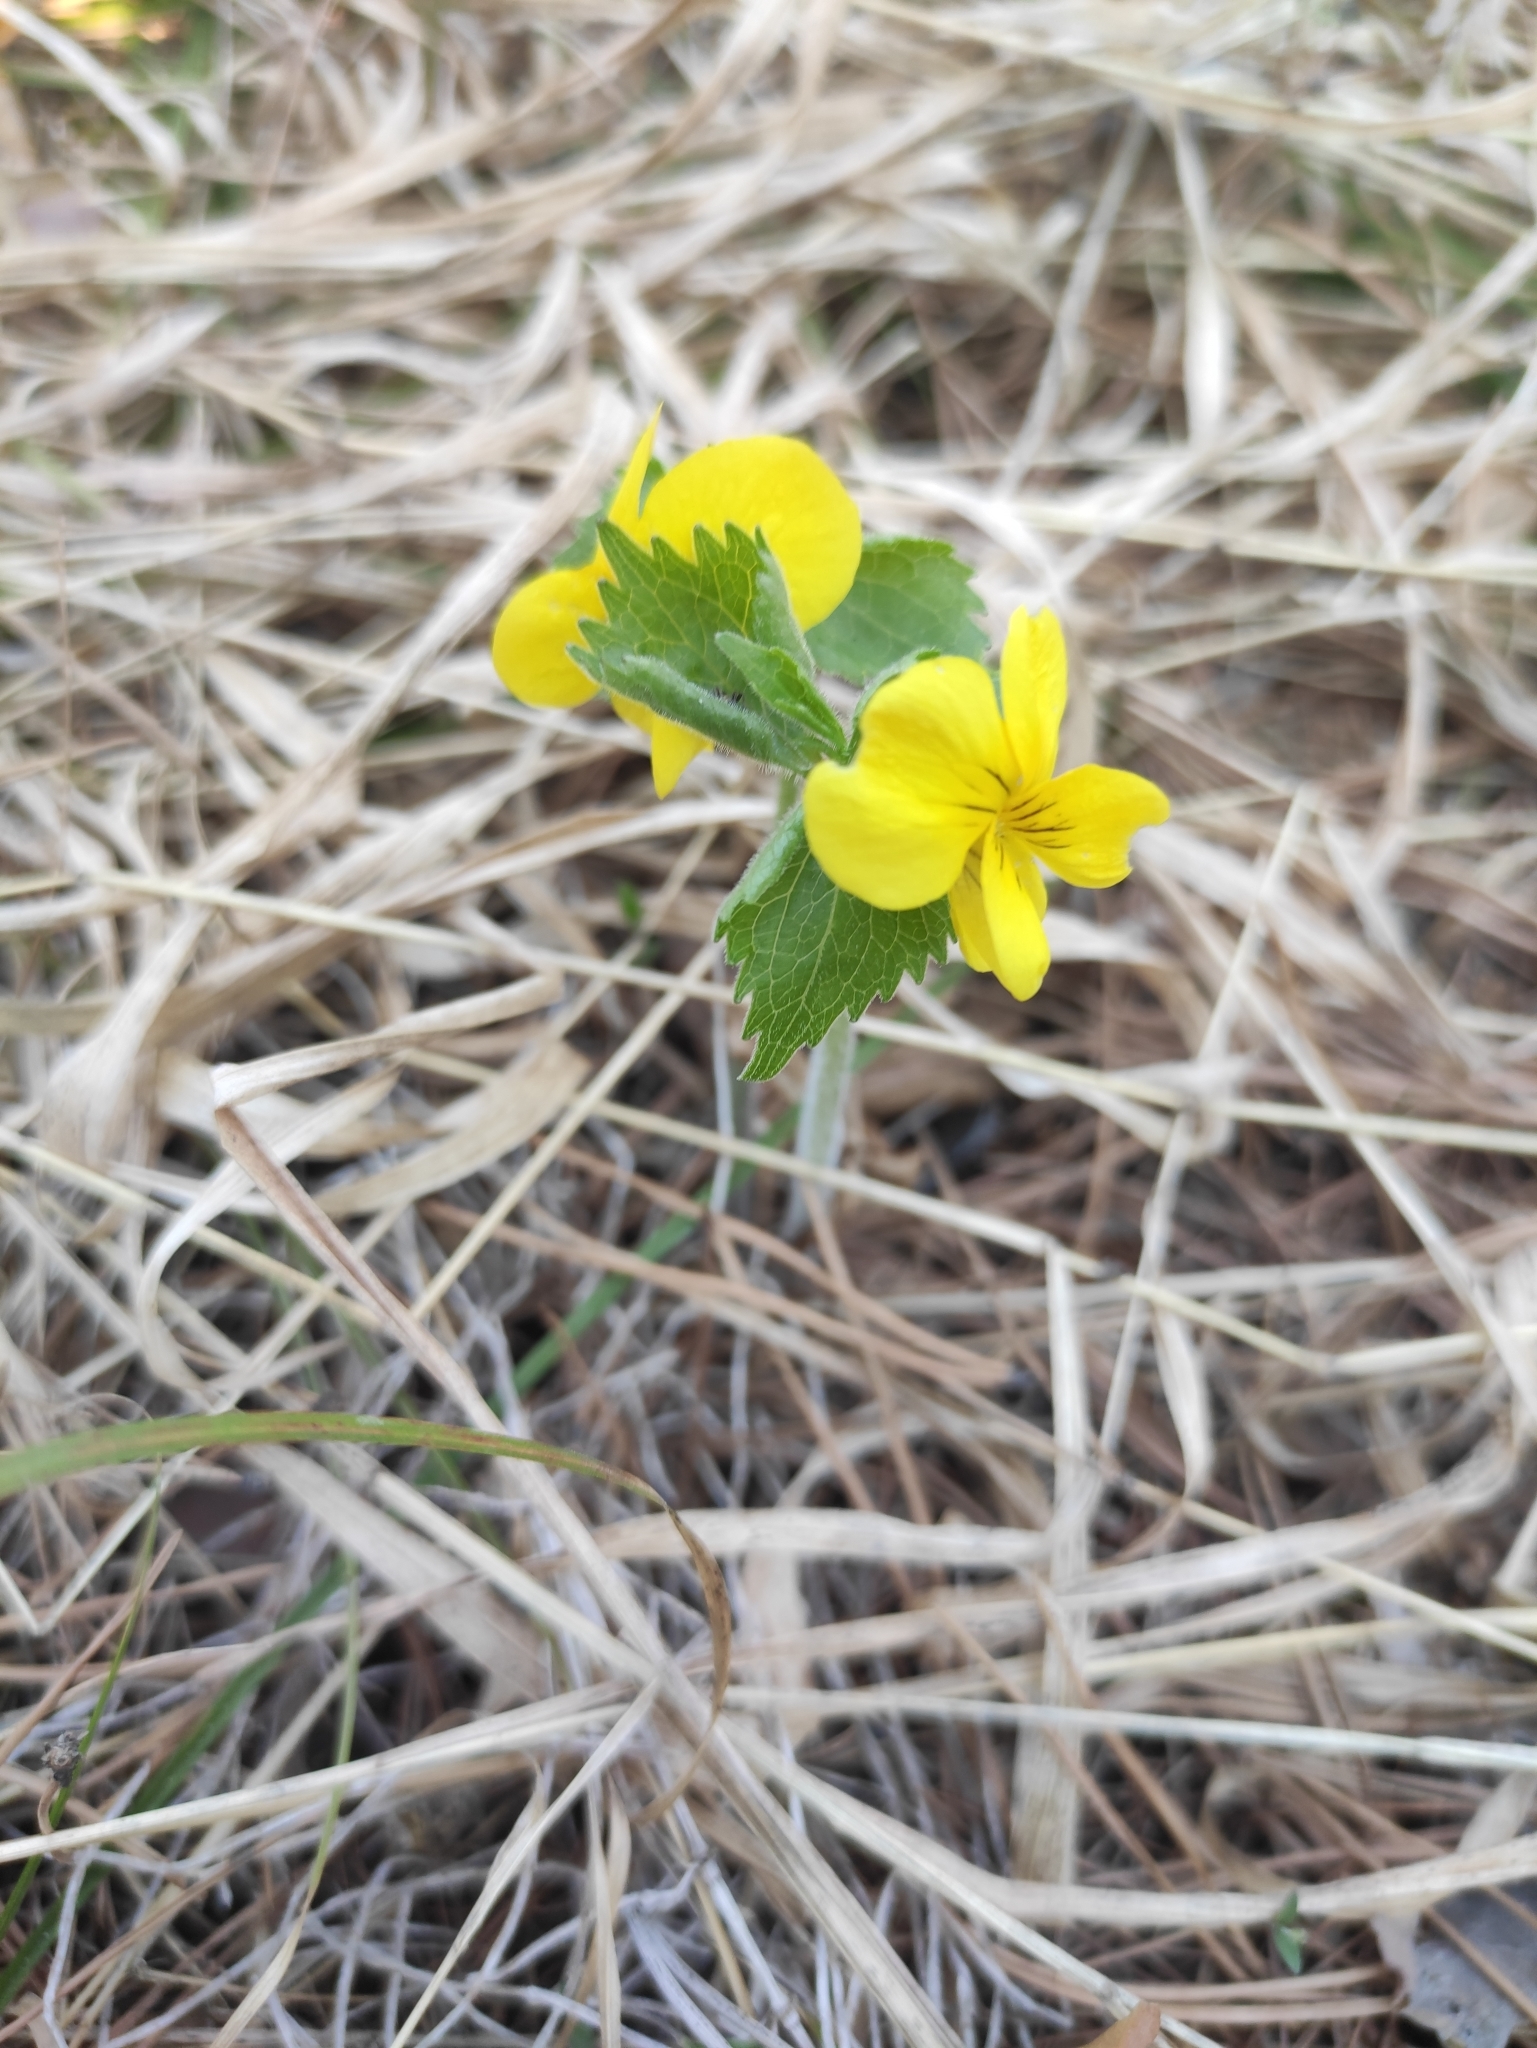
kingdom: Plantae
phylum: Tracheophyta
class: Magnoliopsida
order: Malpighiales
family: Violaceae
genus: Viola
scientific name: Viola uniflora
